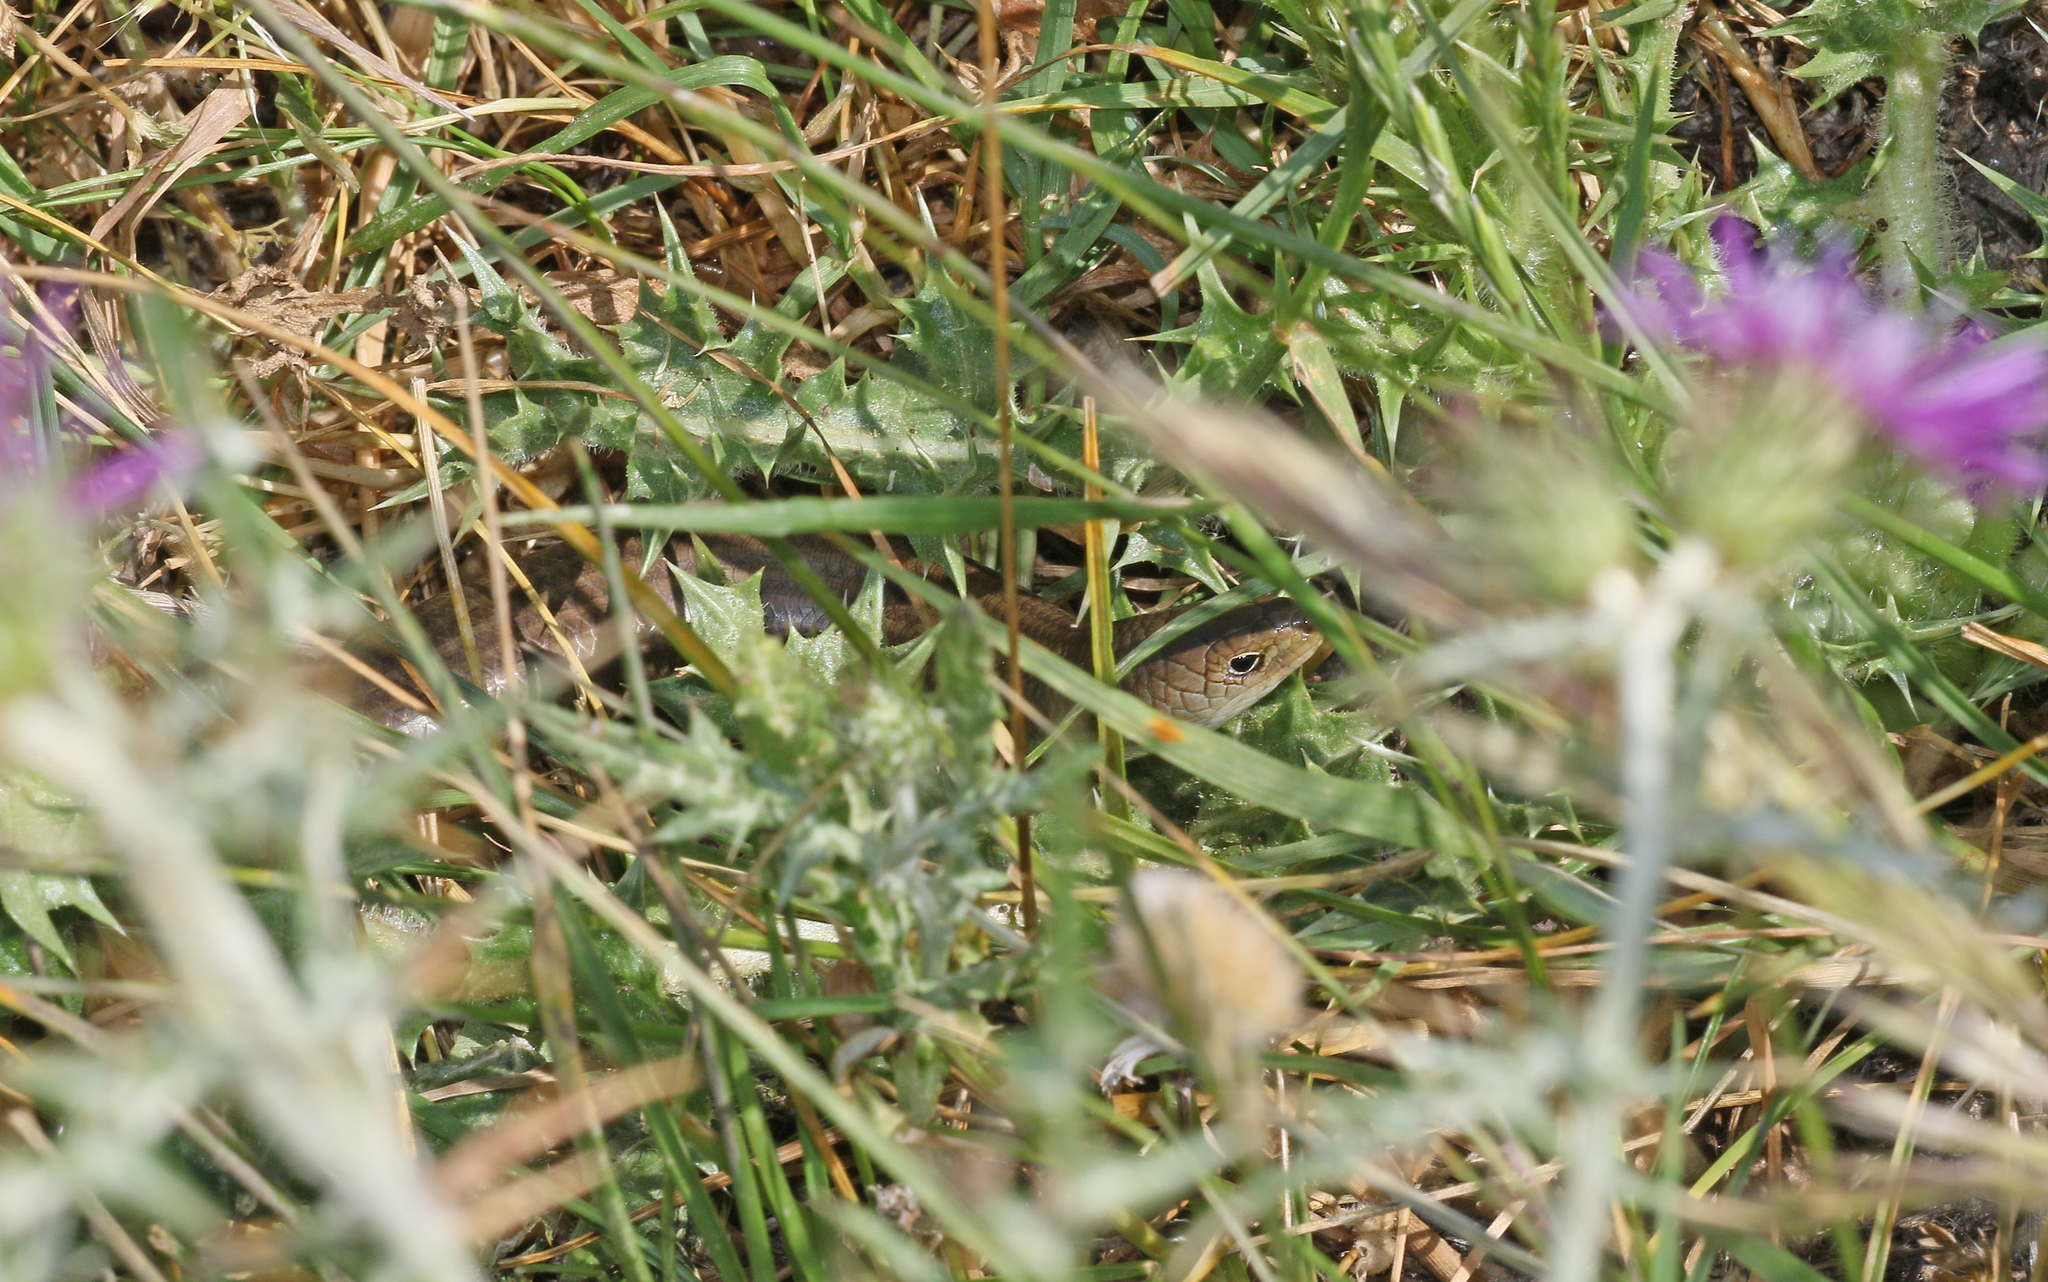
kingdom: Animalia
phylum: Chordata
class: Squamata
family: Scincidae
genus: Chalcides
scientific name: Chalcides striatus
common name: Western (or iberian) three-toed skink
